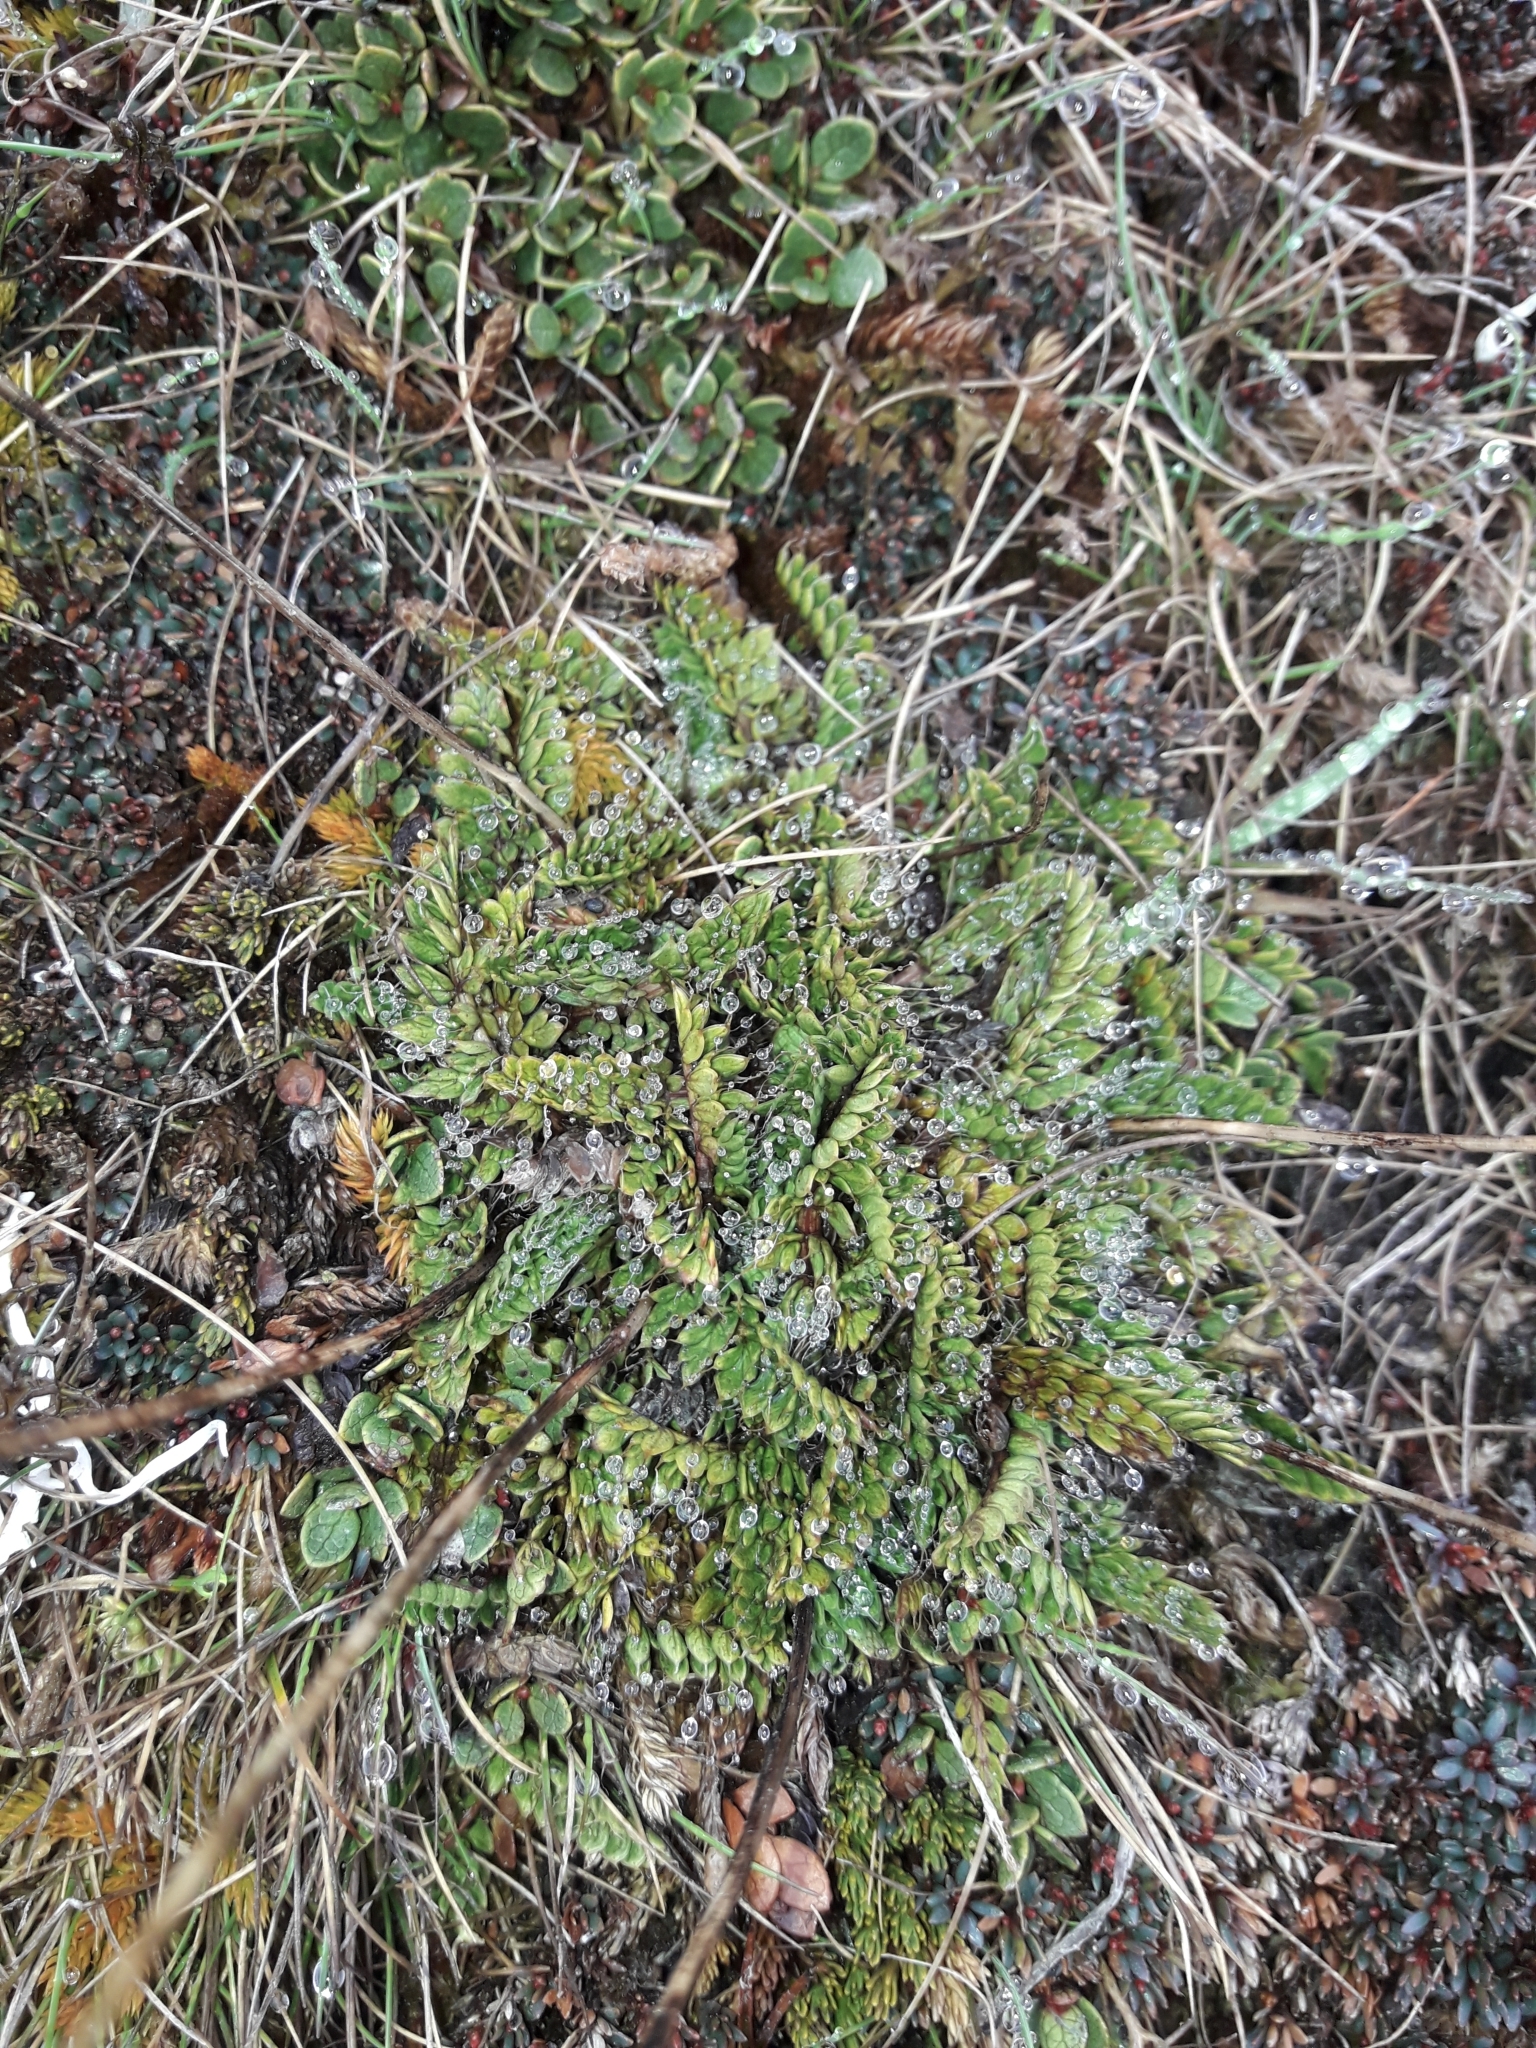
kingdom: Plantae
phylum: Tracheophyta
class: Magnoliopsida
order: Apiales
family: Apiaceae
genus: Anisotome
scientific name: Anisotome flexuosa
